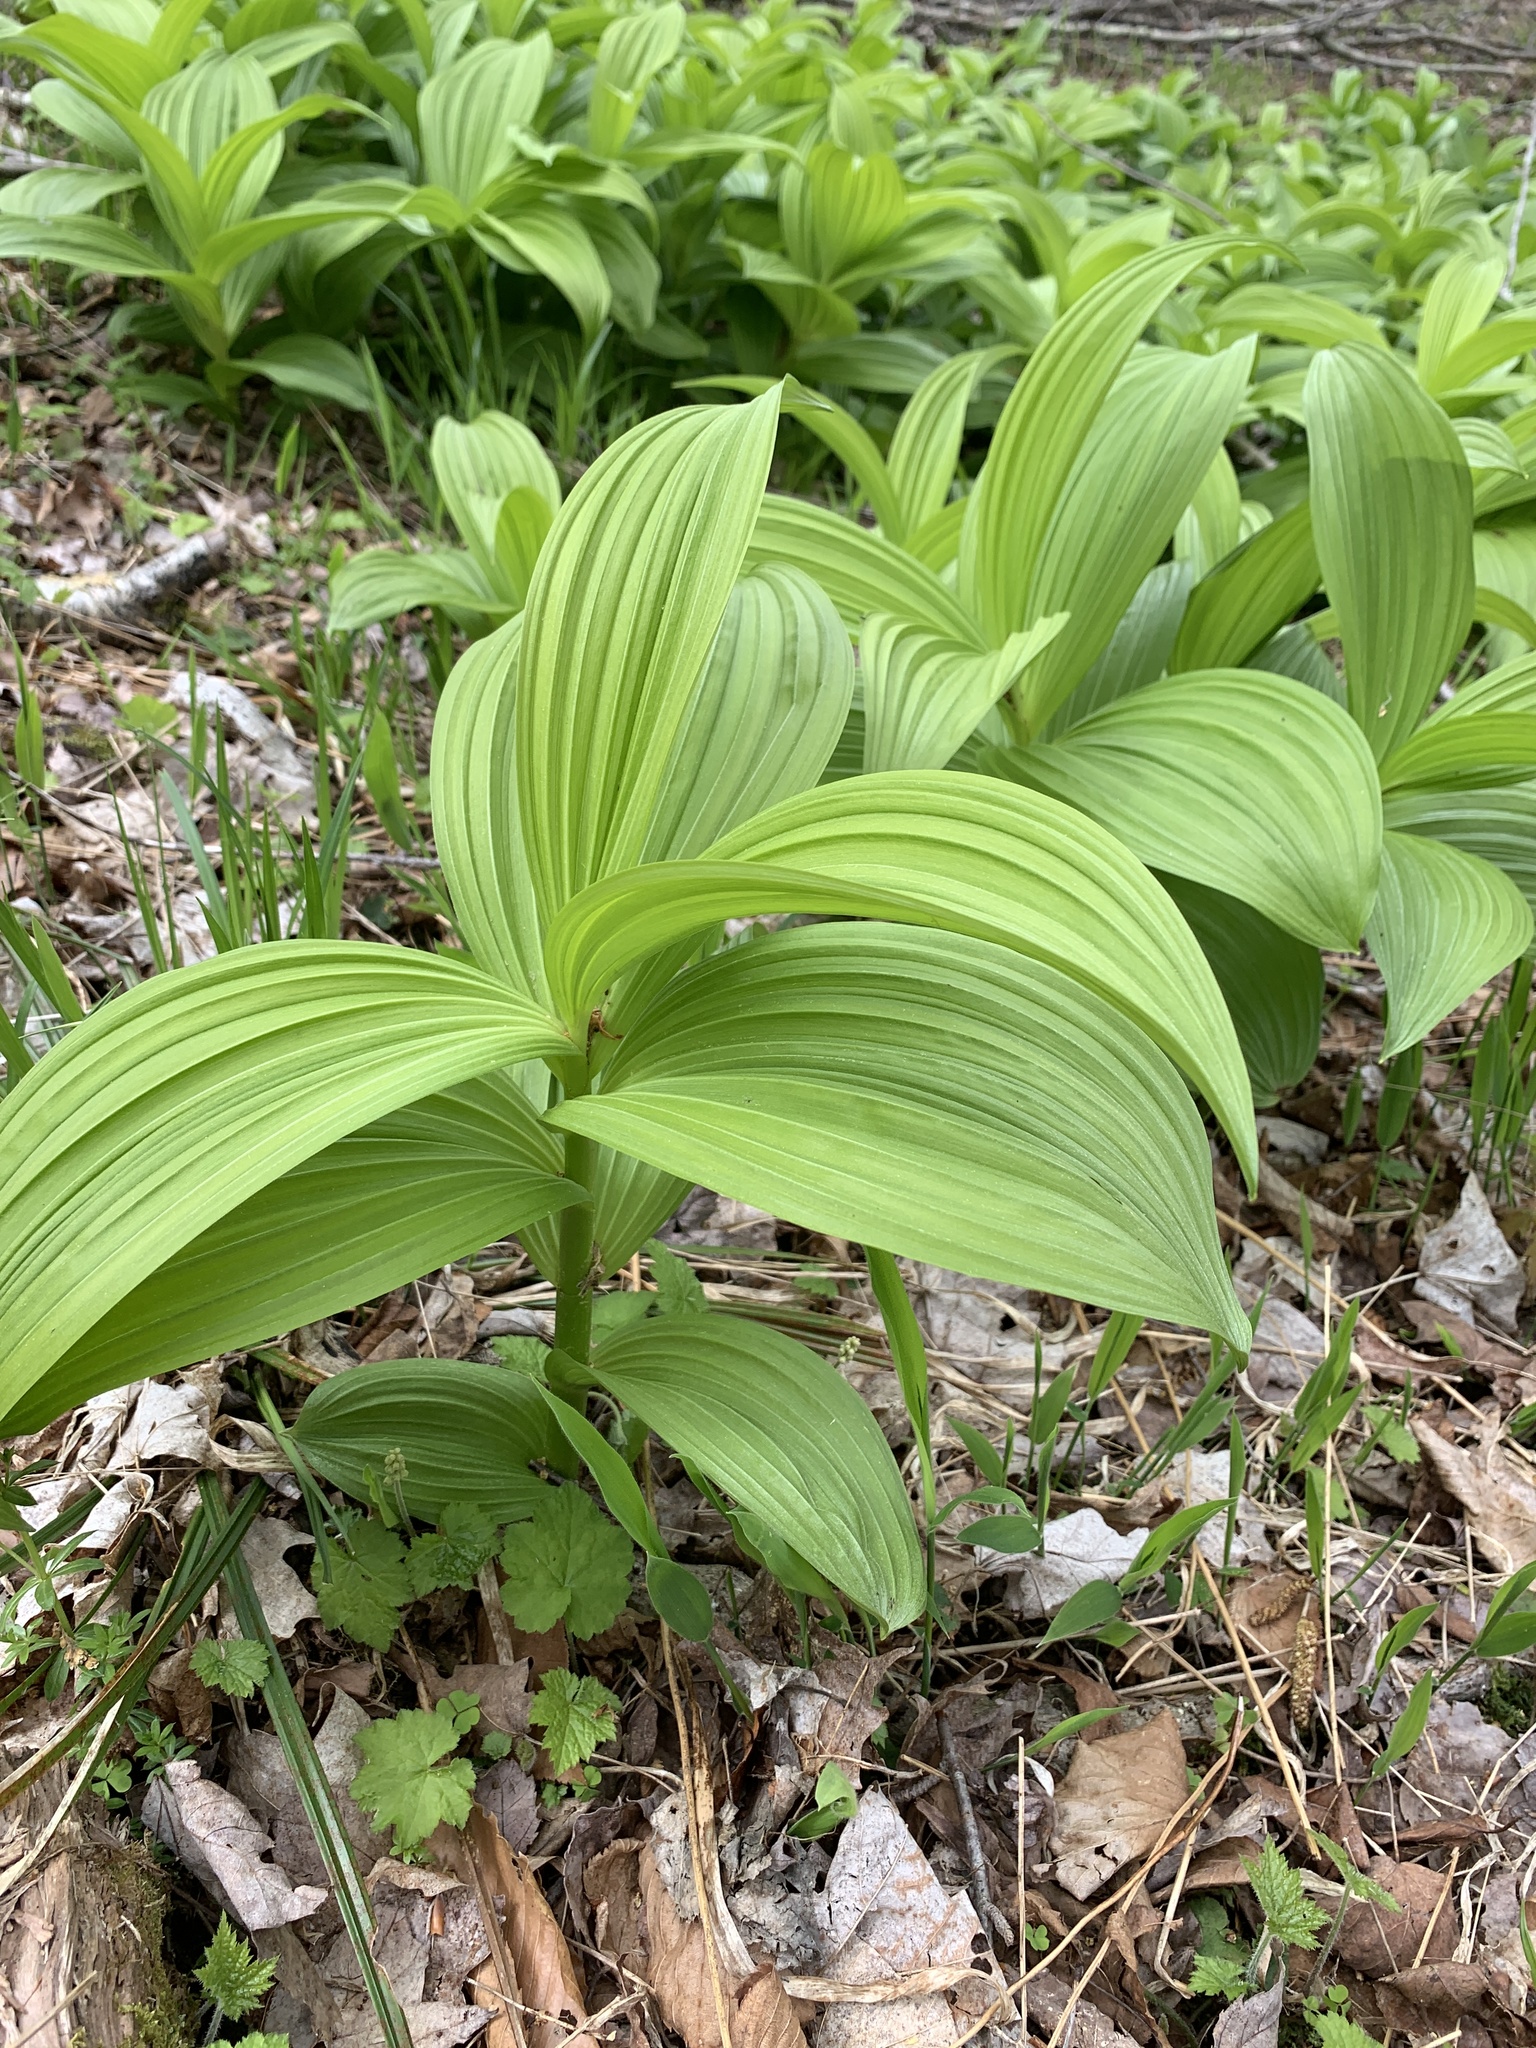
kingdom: Plantae
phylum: Tracheophyta
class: Liliopsida
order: Liliales
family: Melanthiaceae
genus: Veratrum
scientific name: Veratrum viride
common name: American false hellebore
